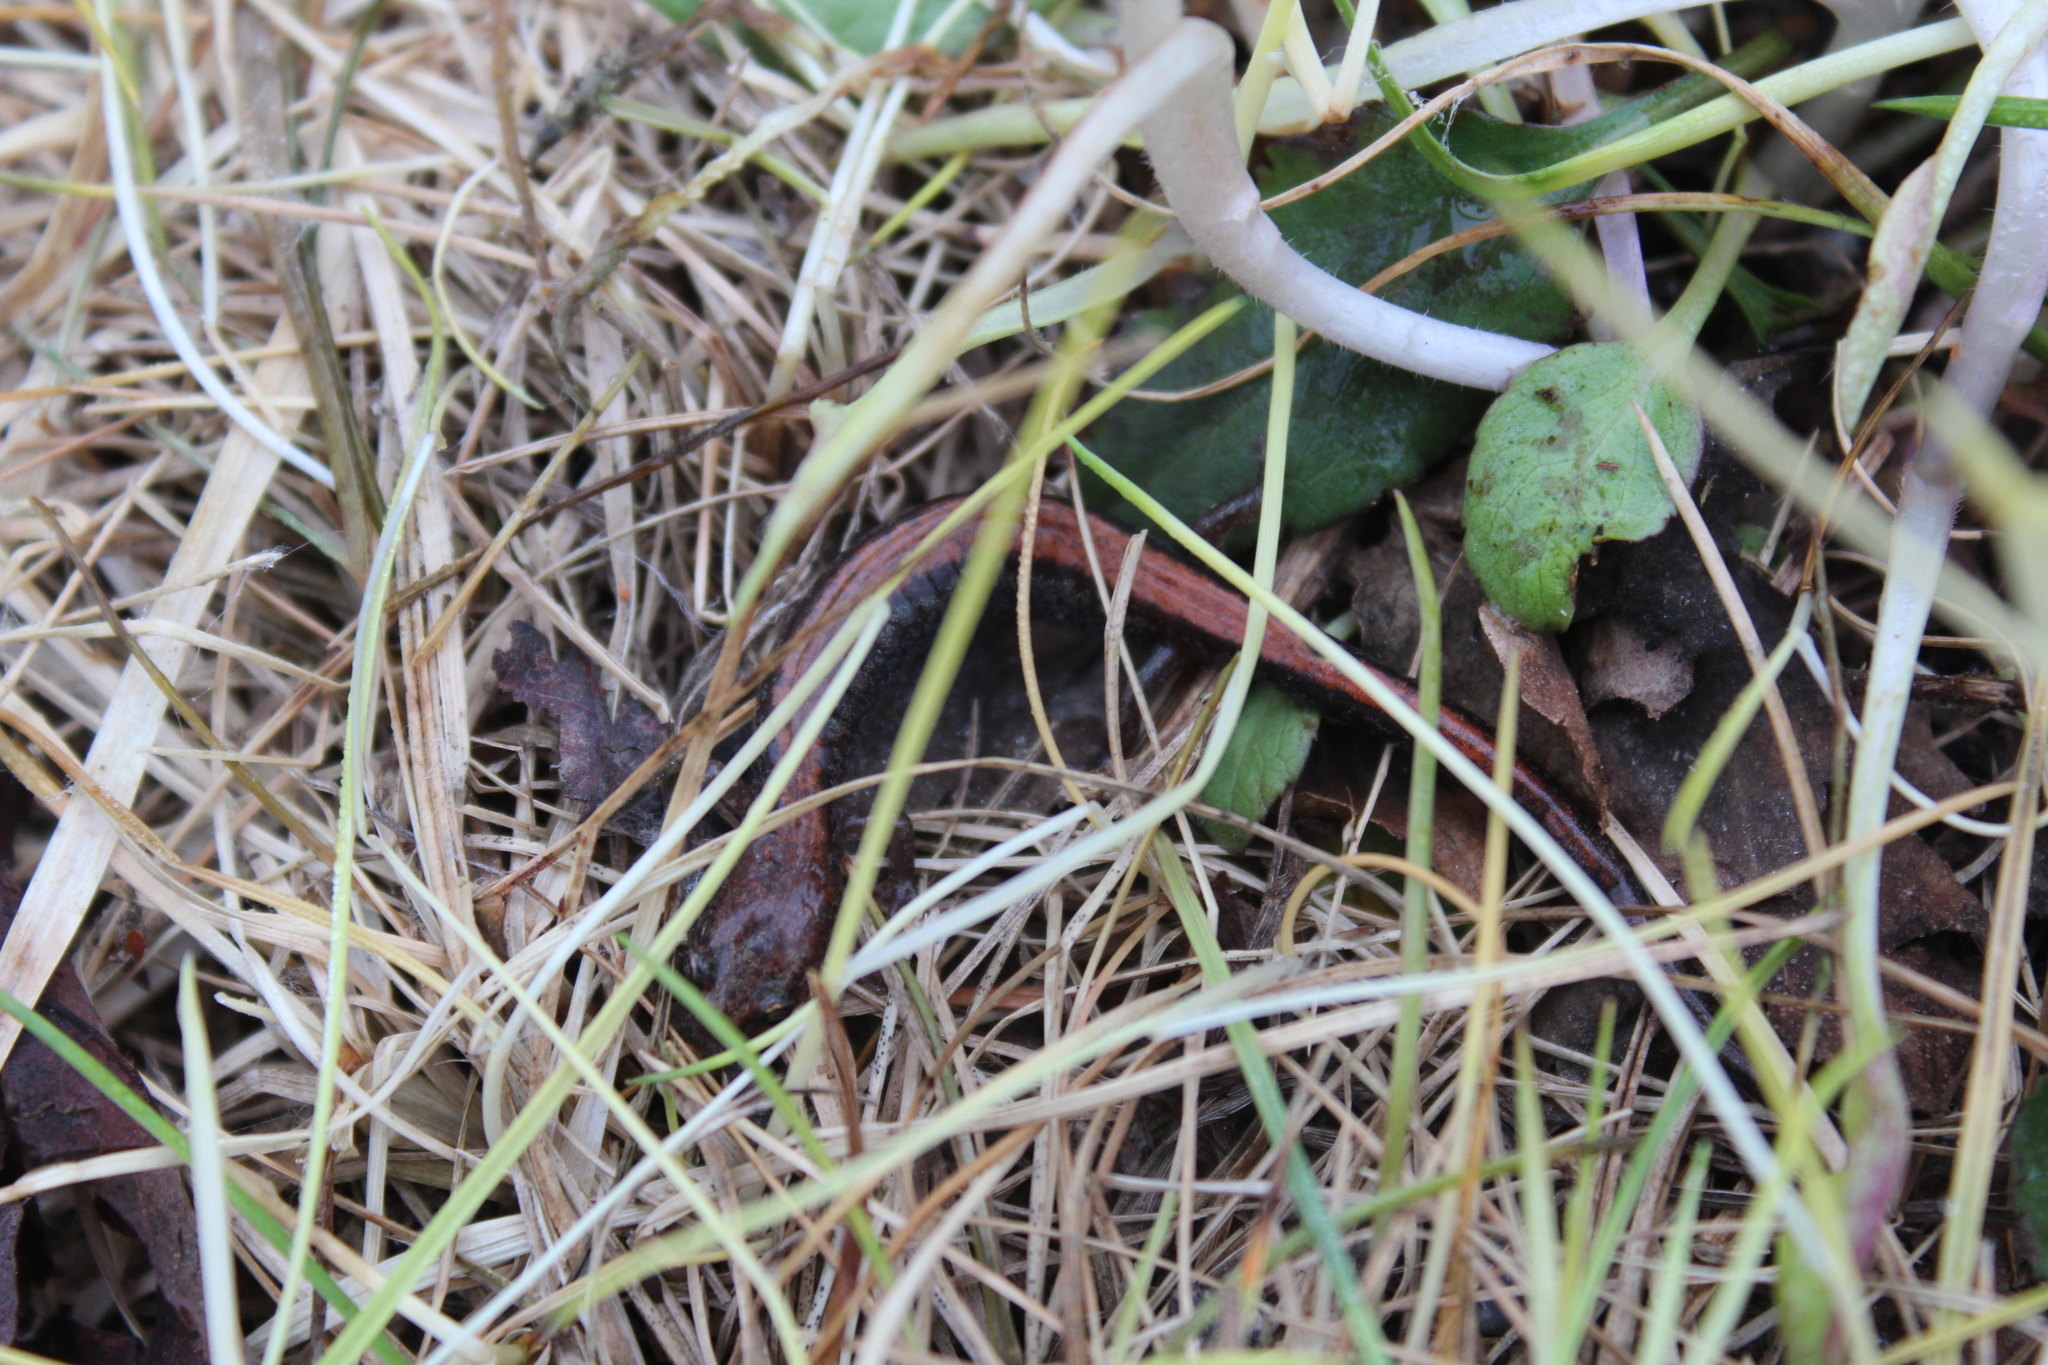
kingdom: Animalia
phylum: Chordata
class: Amphibia
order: Caudata
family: Plethodontidae
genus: Plethodon
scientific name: Plethodon cinereus
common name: Redback salamander
